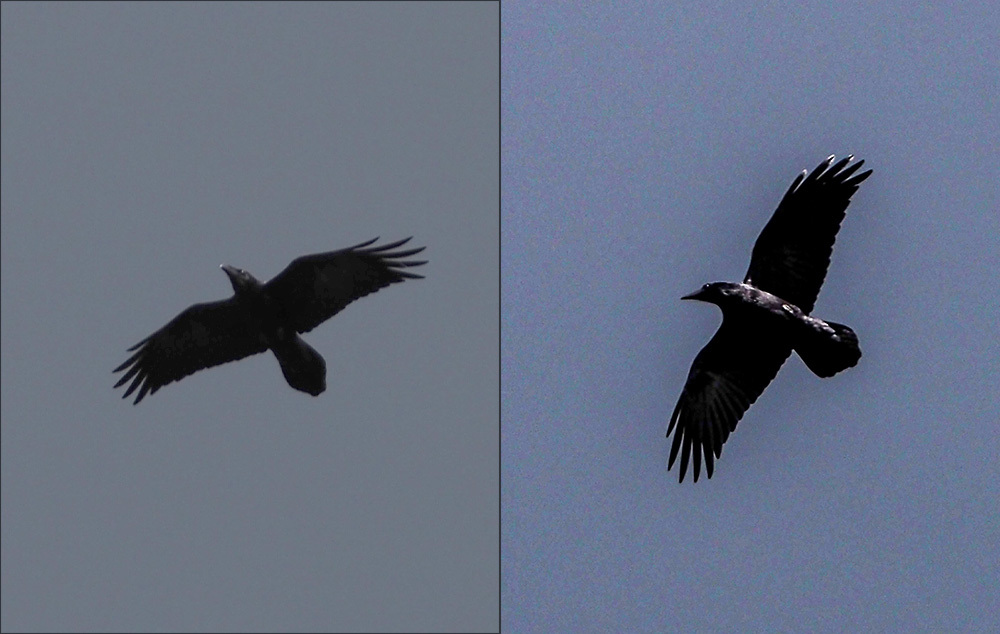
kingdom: Animalia
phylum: Chordata
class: Aves
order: Passeriformes
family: Corvidae
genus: Corvus
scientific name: Corvus corax
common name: Common raven
